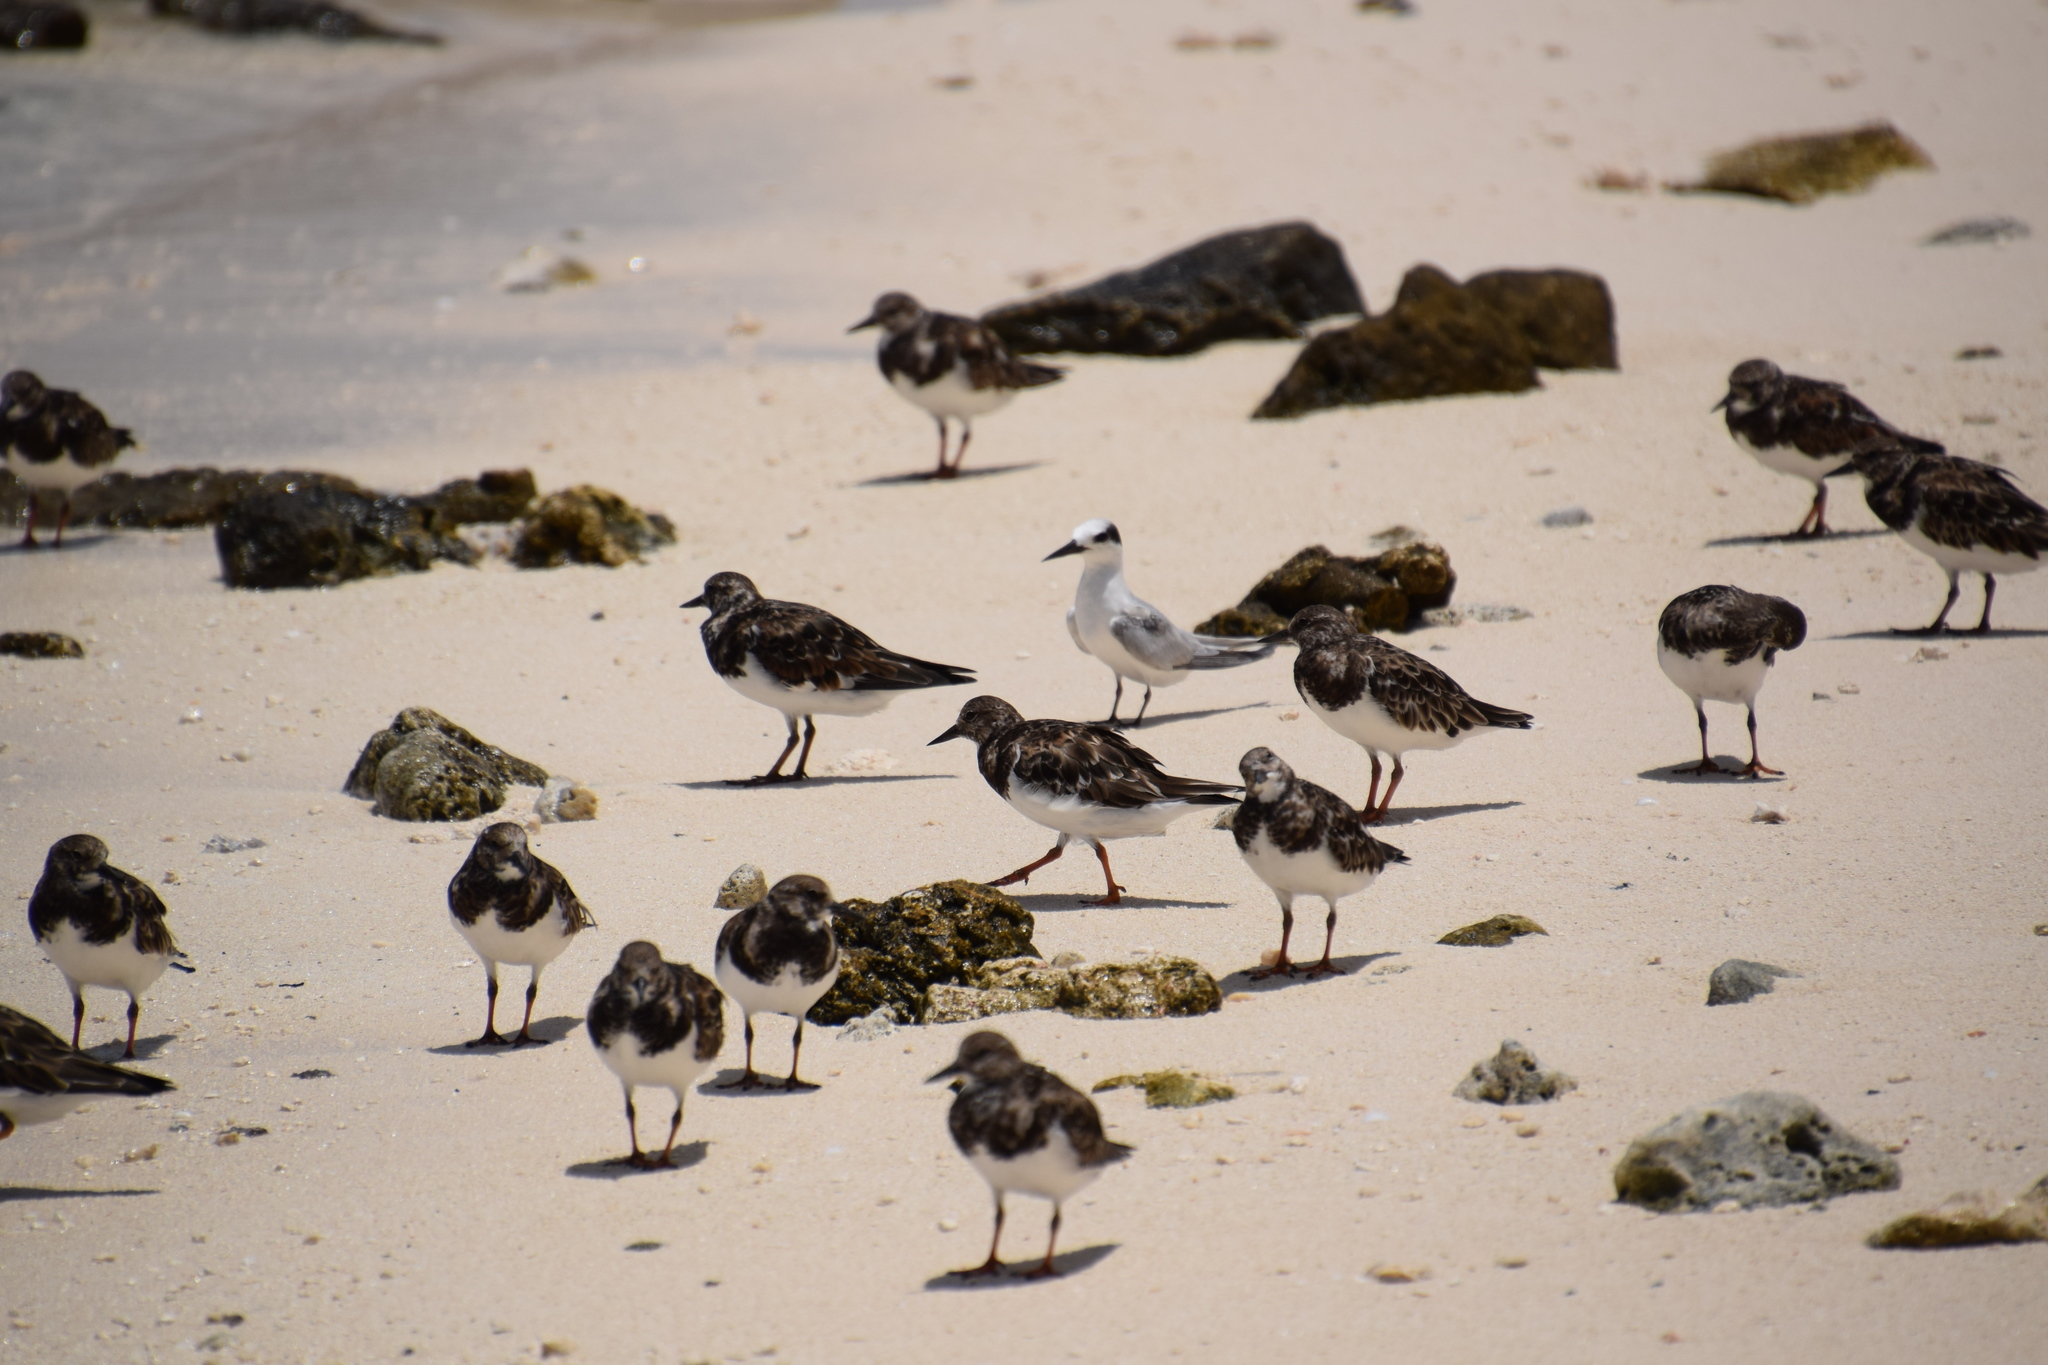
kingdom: Animalia
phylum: Chordata
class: Aves
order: Charadriiformes
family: Scolopacidae
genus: Arenaria
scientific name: Arenaria interpres
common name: Ruddy turnstone
